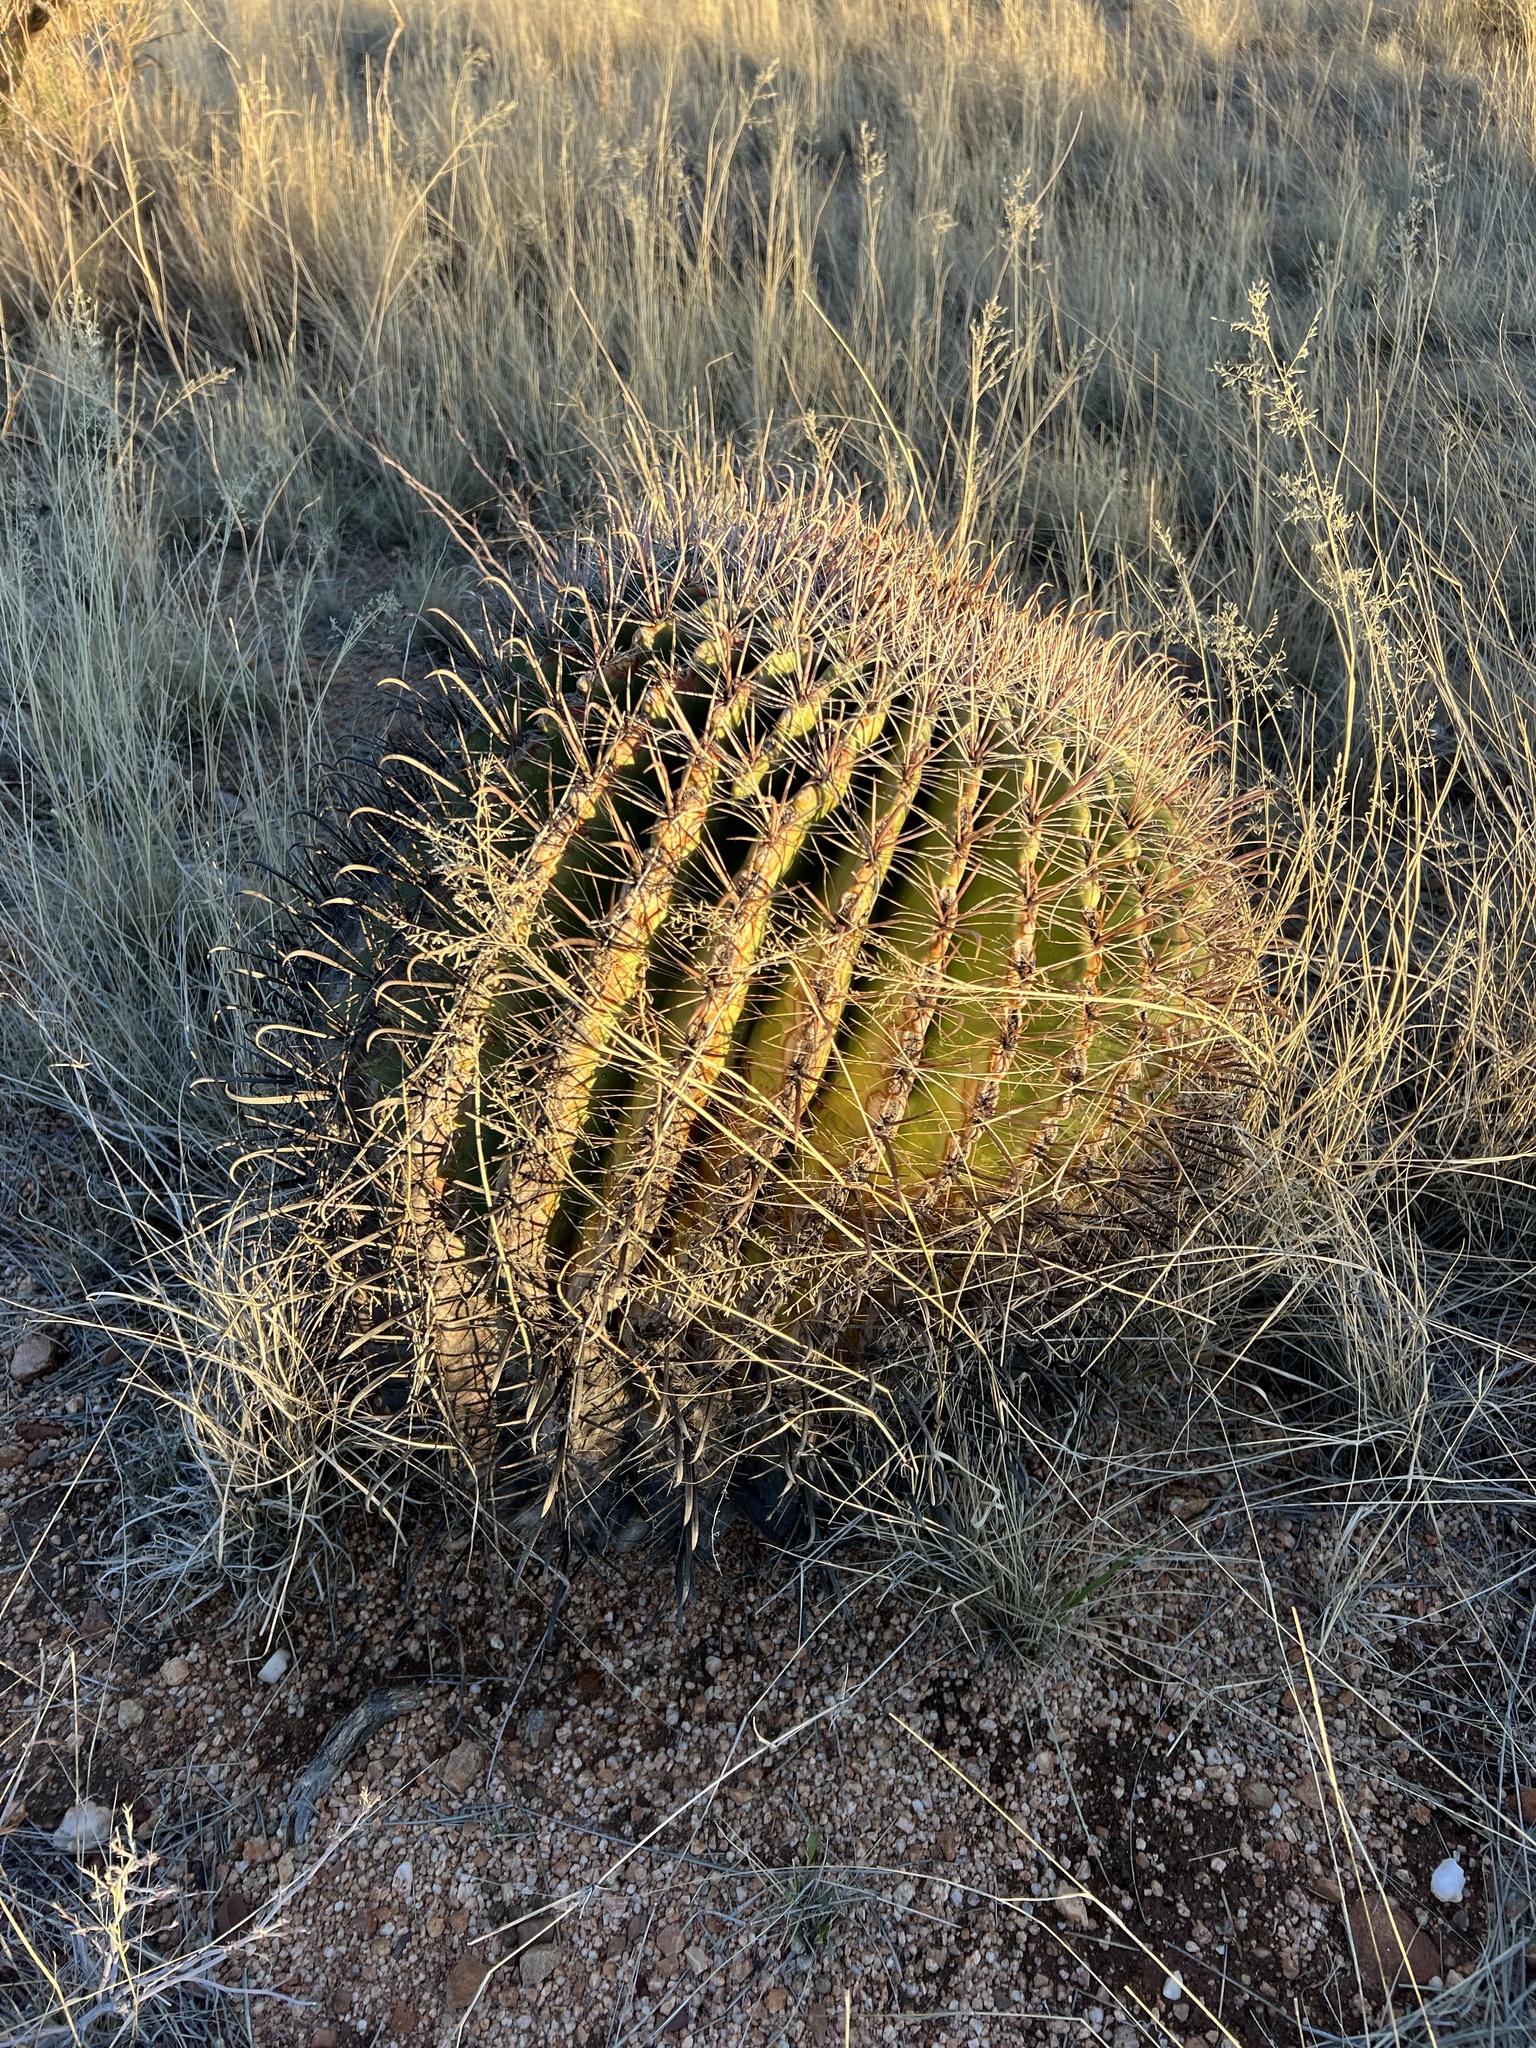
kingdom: Plantae
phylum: Tracheophyta
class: Magnoliopsida
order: Caryophyllales
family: Cactaceae
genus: Ferocactus
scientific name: Ferocactus wislizeni
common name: Candy barrel cactus
